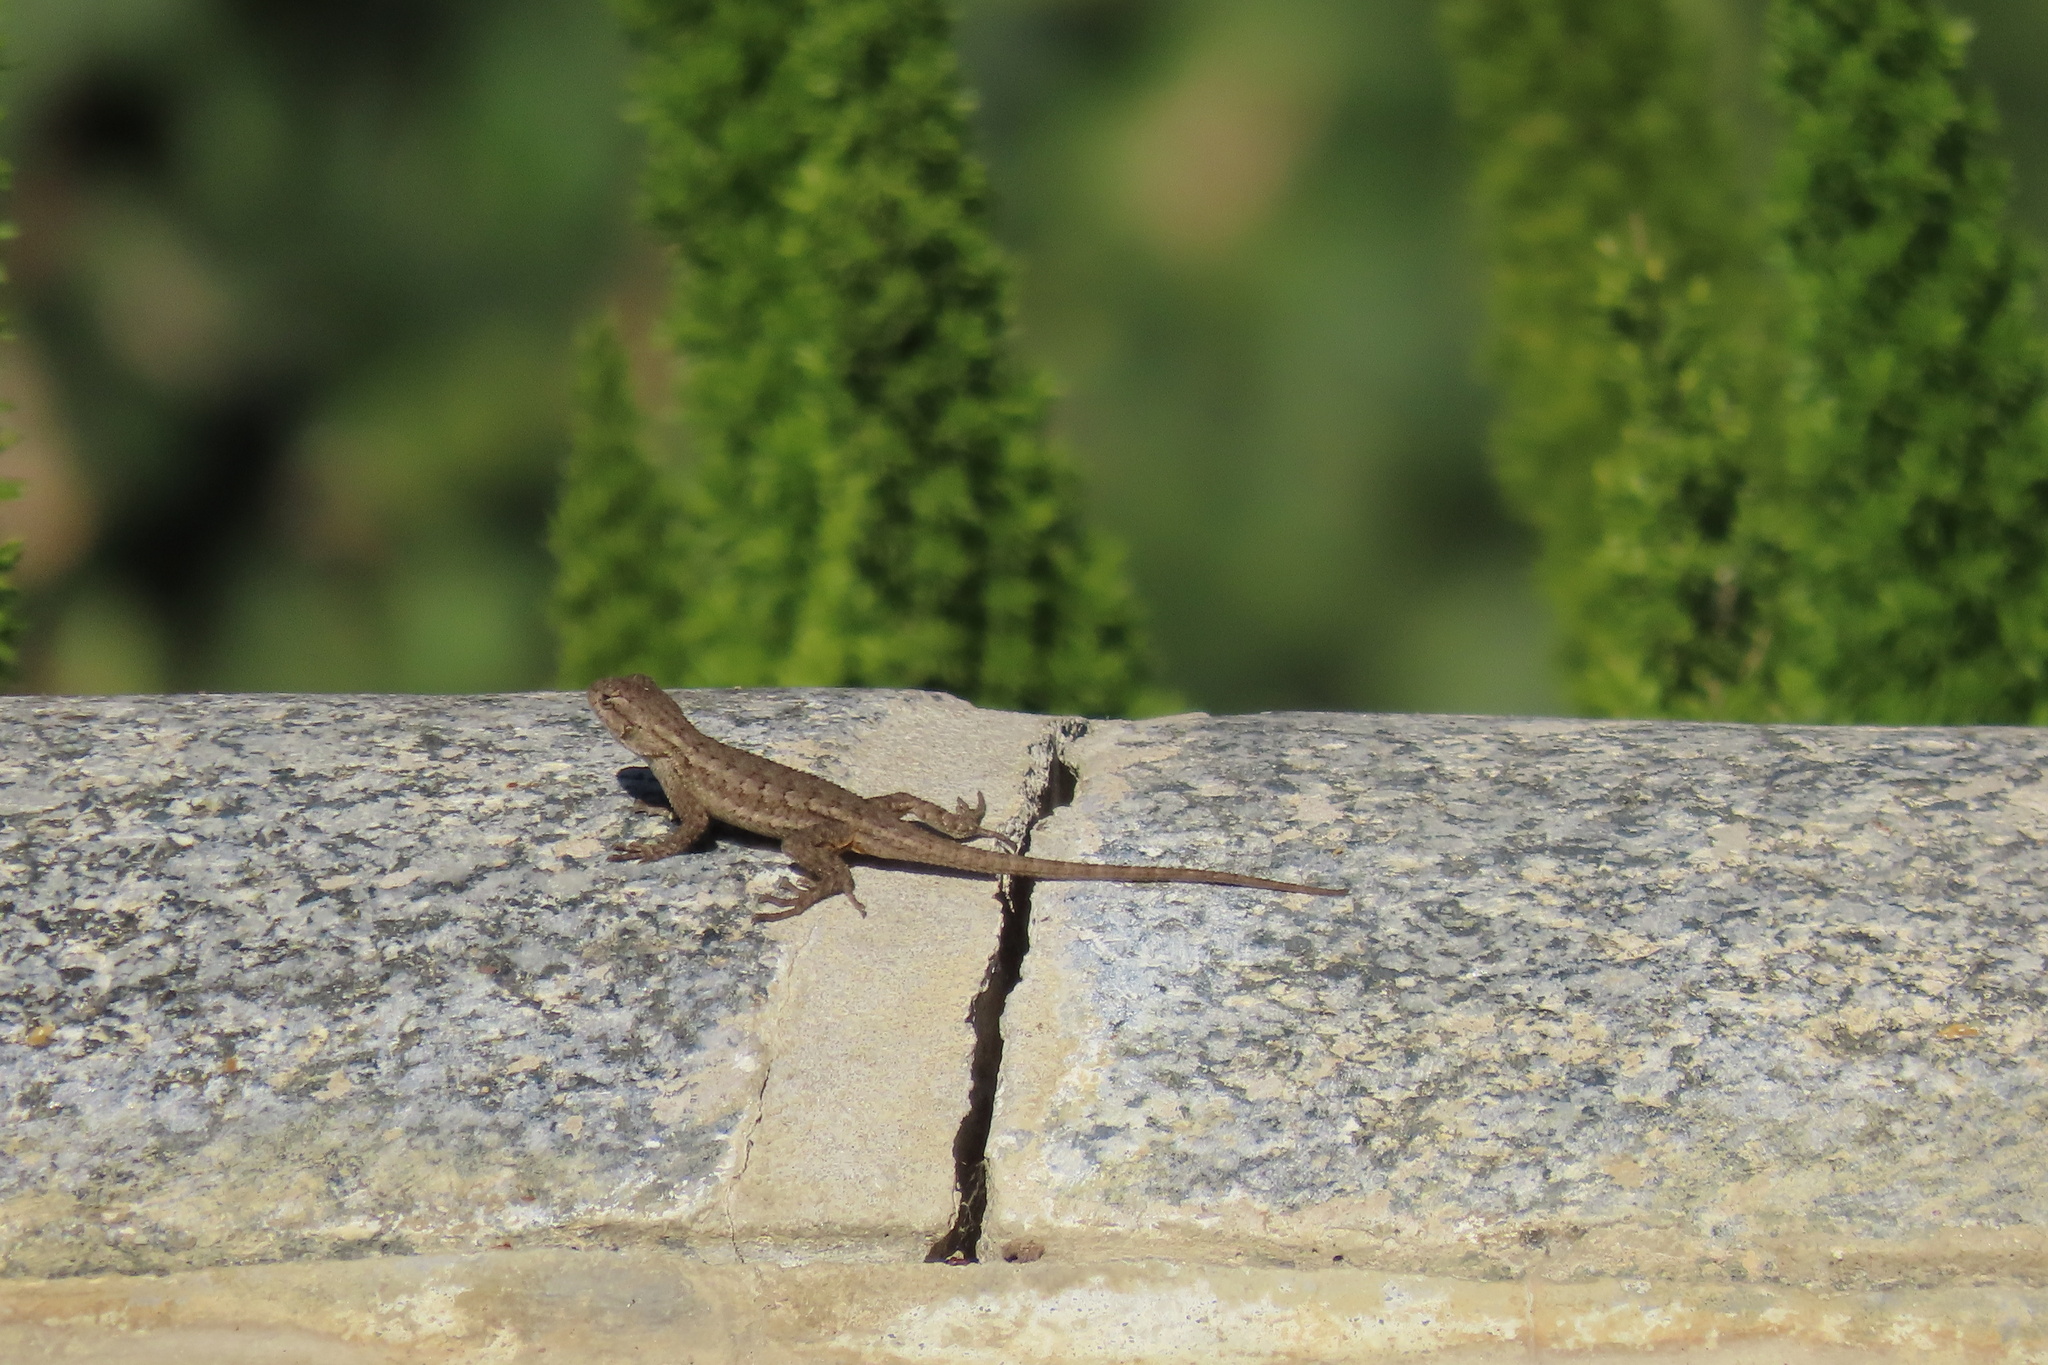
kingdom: Animalia
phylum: Chordata
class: Squamata
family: Phrynosomatidae
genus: Sceloporus
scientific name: Sceloporus occidentalis
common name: Western fence lizard
